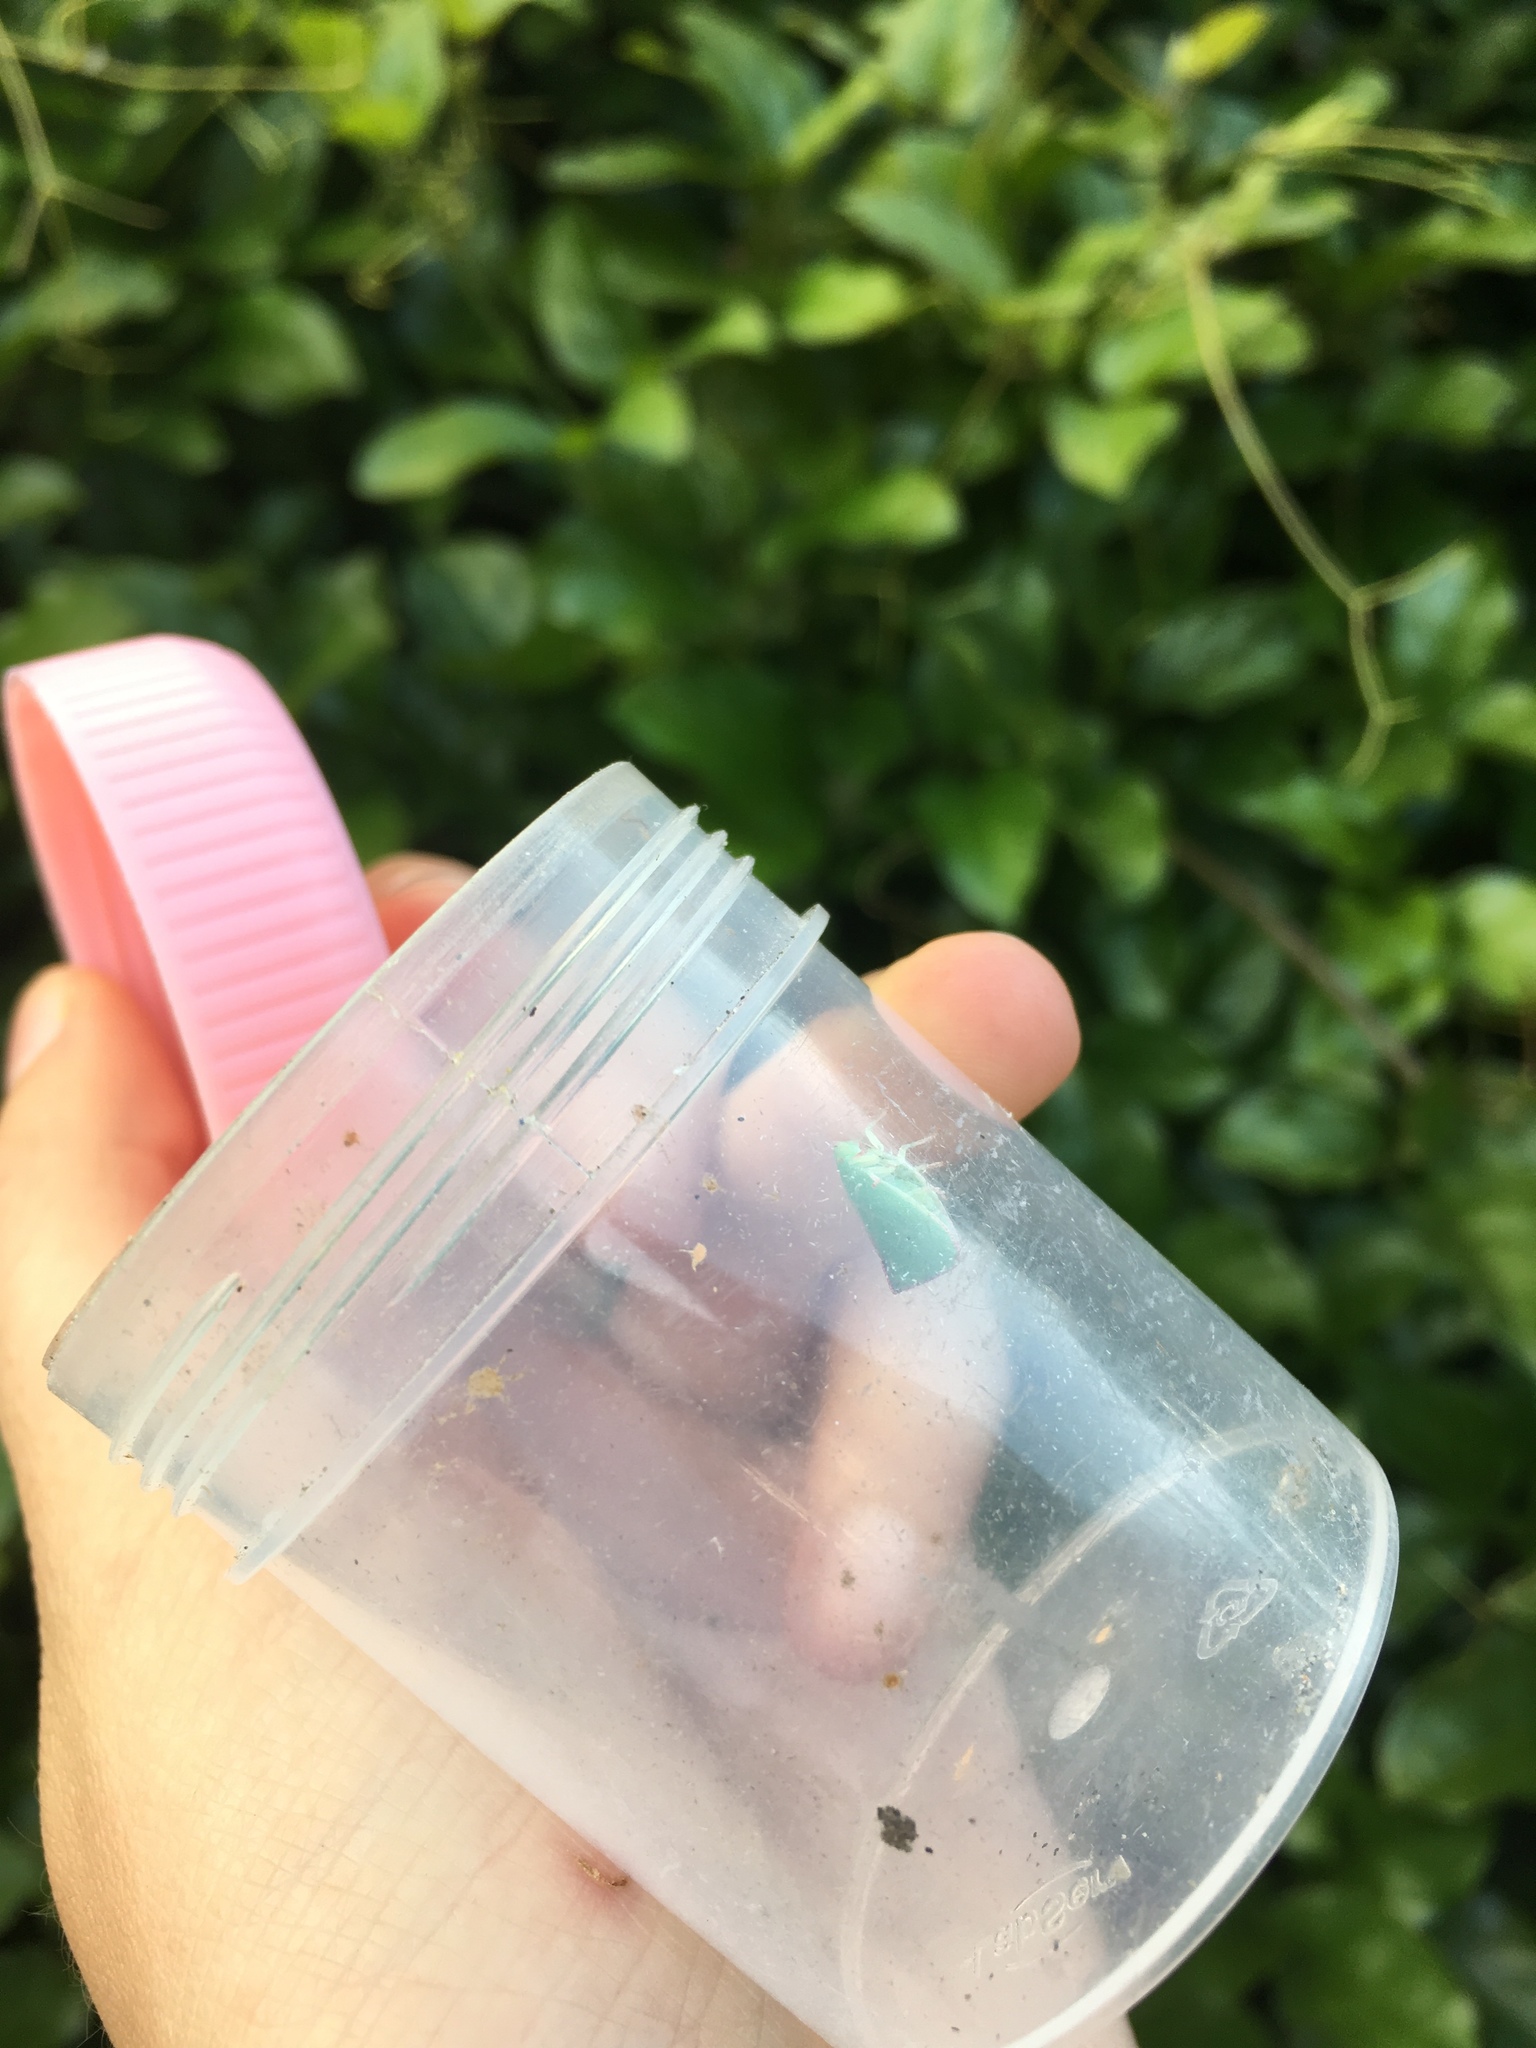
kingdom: Animalia
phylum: Arthropoda
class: Insecta
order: Hemiptera
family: Flatidae
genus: Siphanta
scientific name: Siphanta acuta
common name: Torpedo bug
